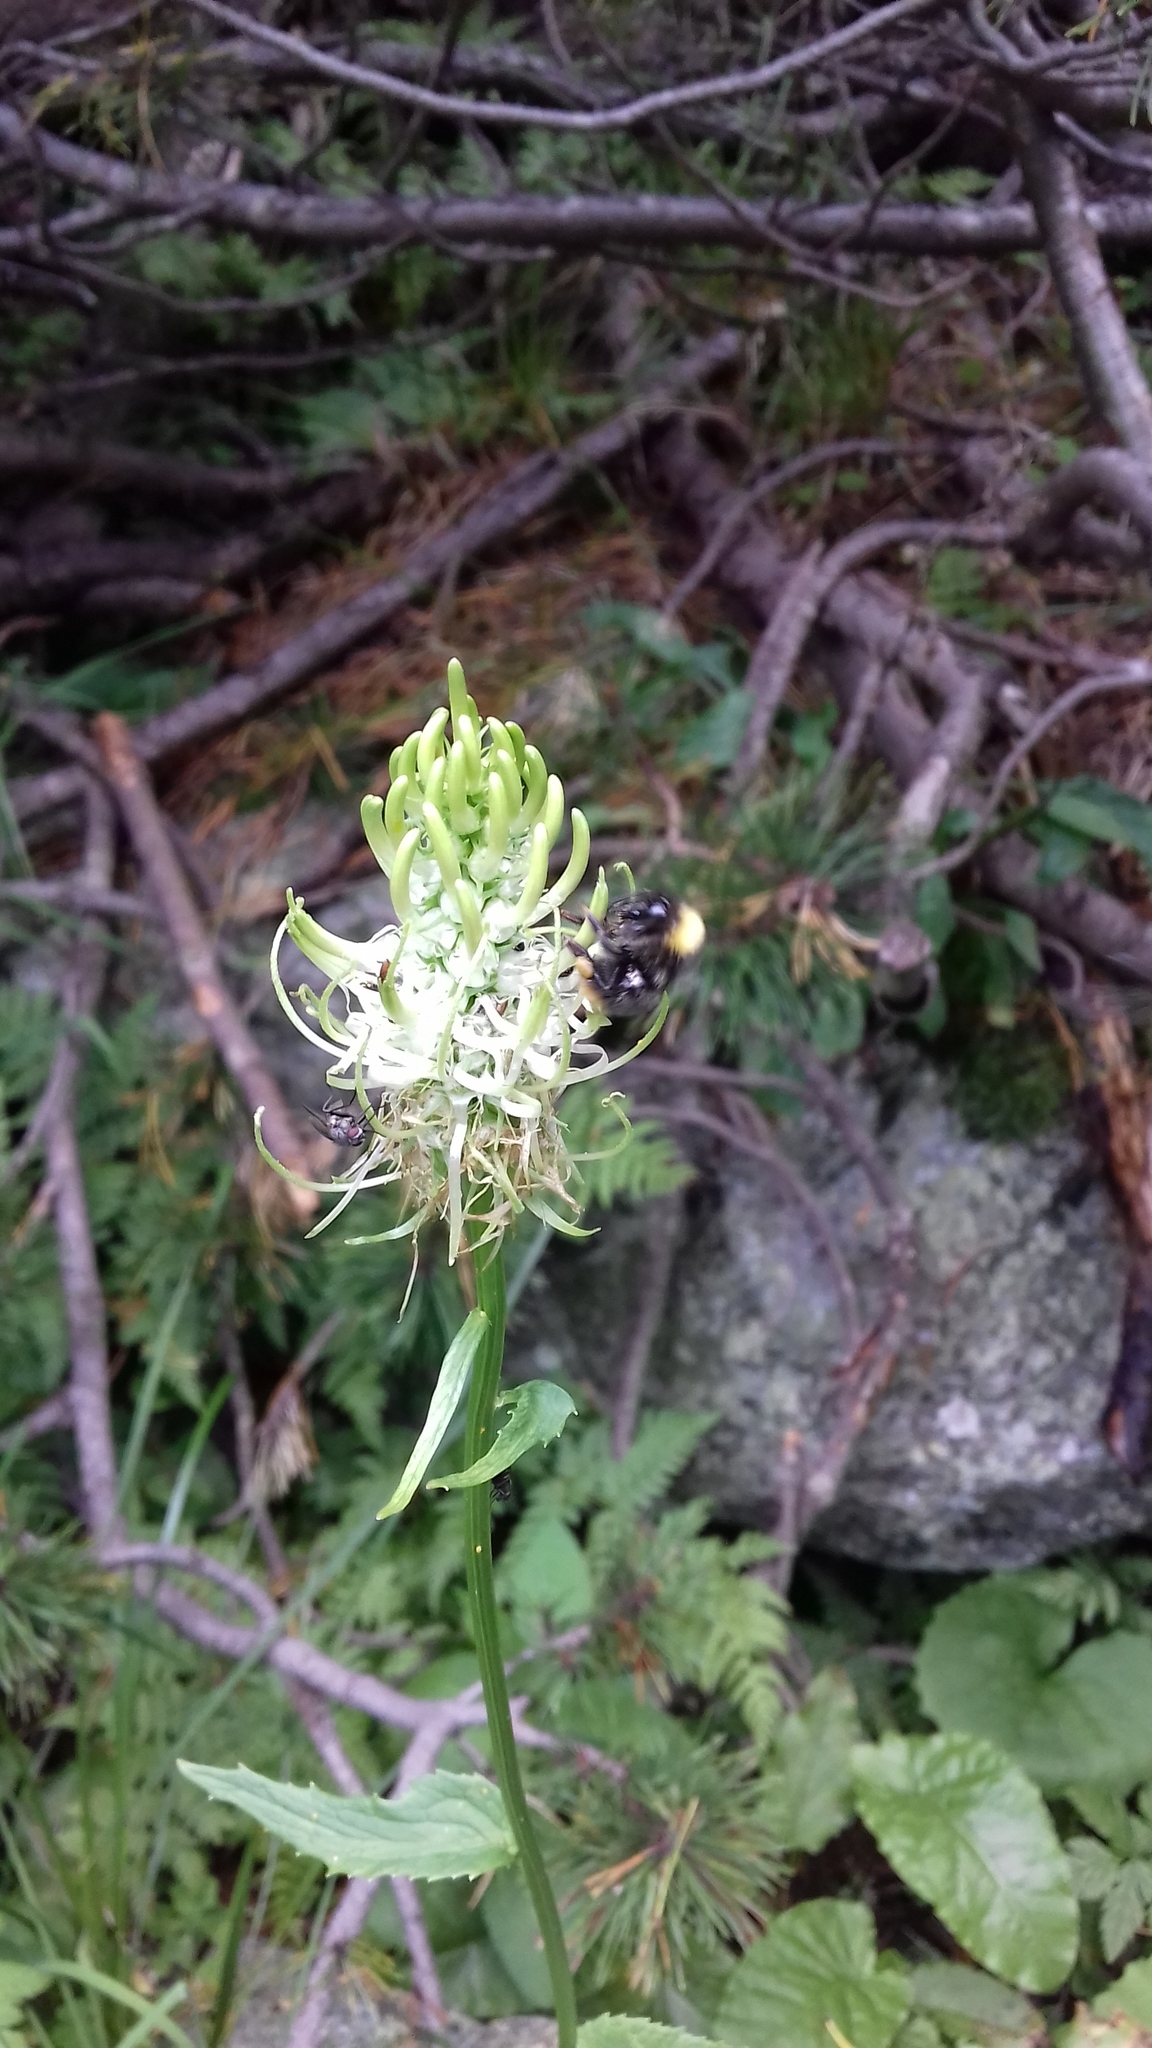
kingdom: Plantae
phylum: Tracheophyta
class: Magnoliopsida
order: Asterales
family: Campanulaceae
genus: Phyteuma
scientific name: Phyteuma spicatum
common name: Spiked rampion
